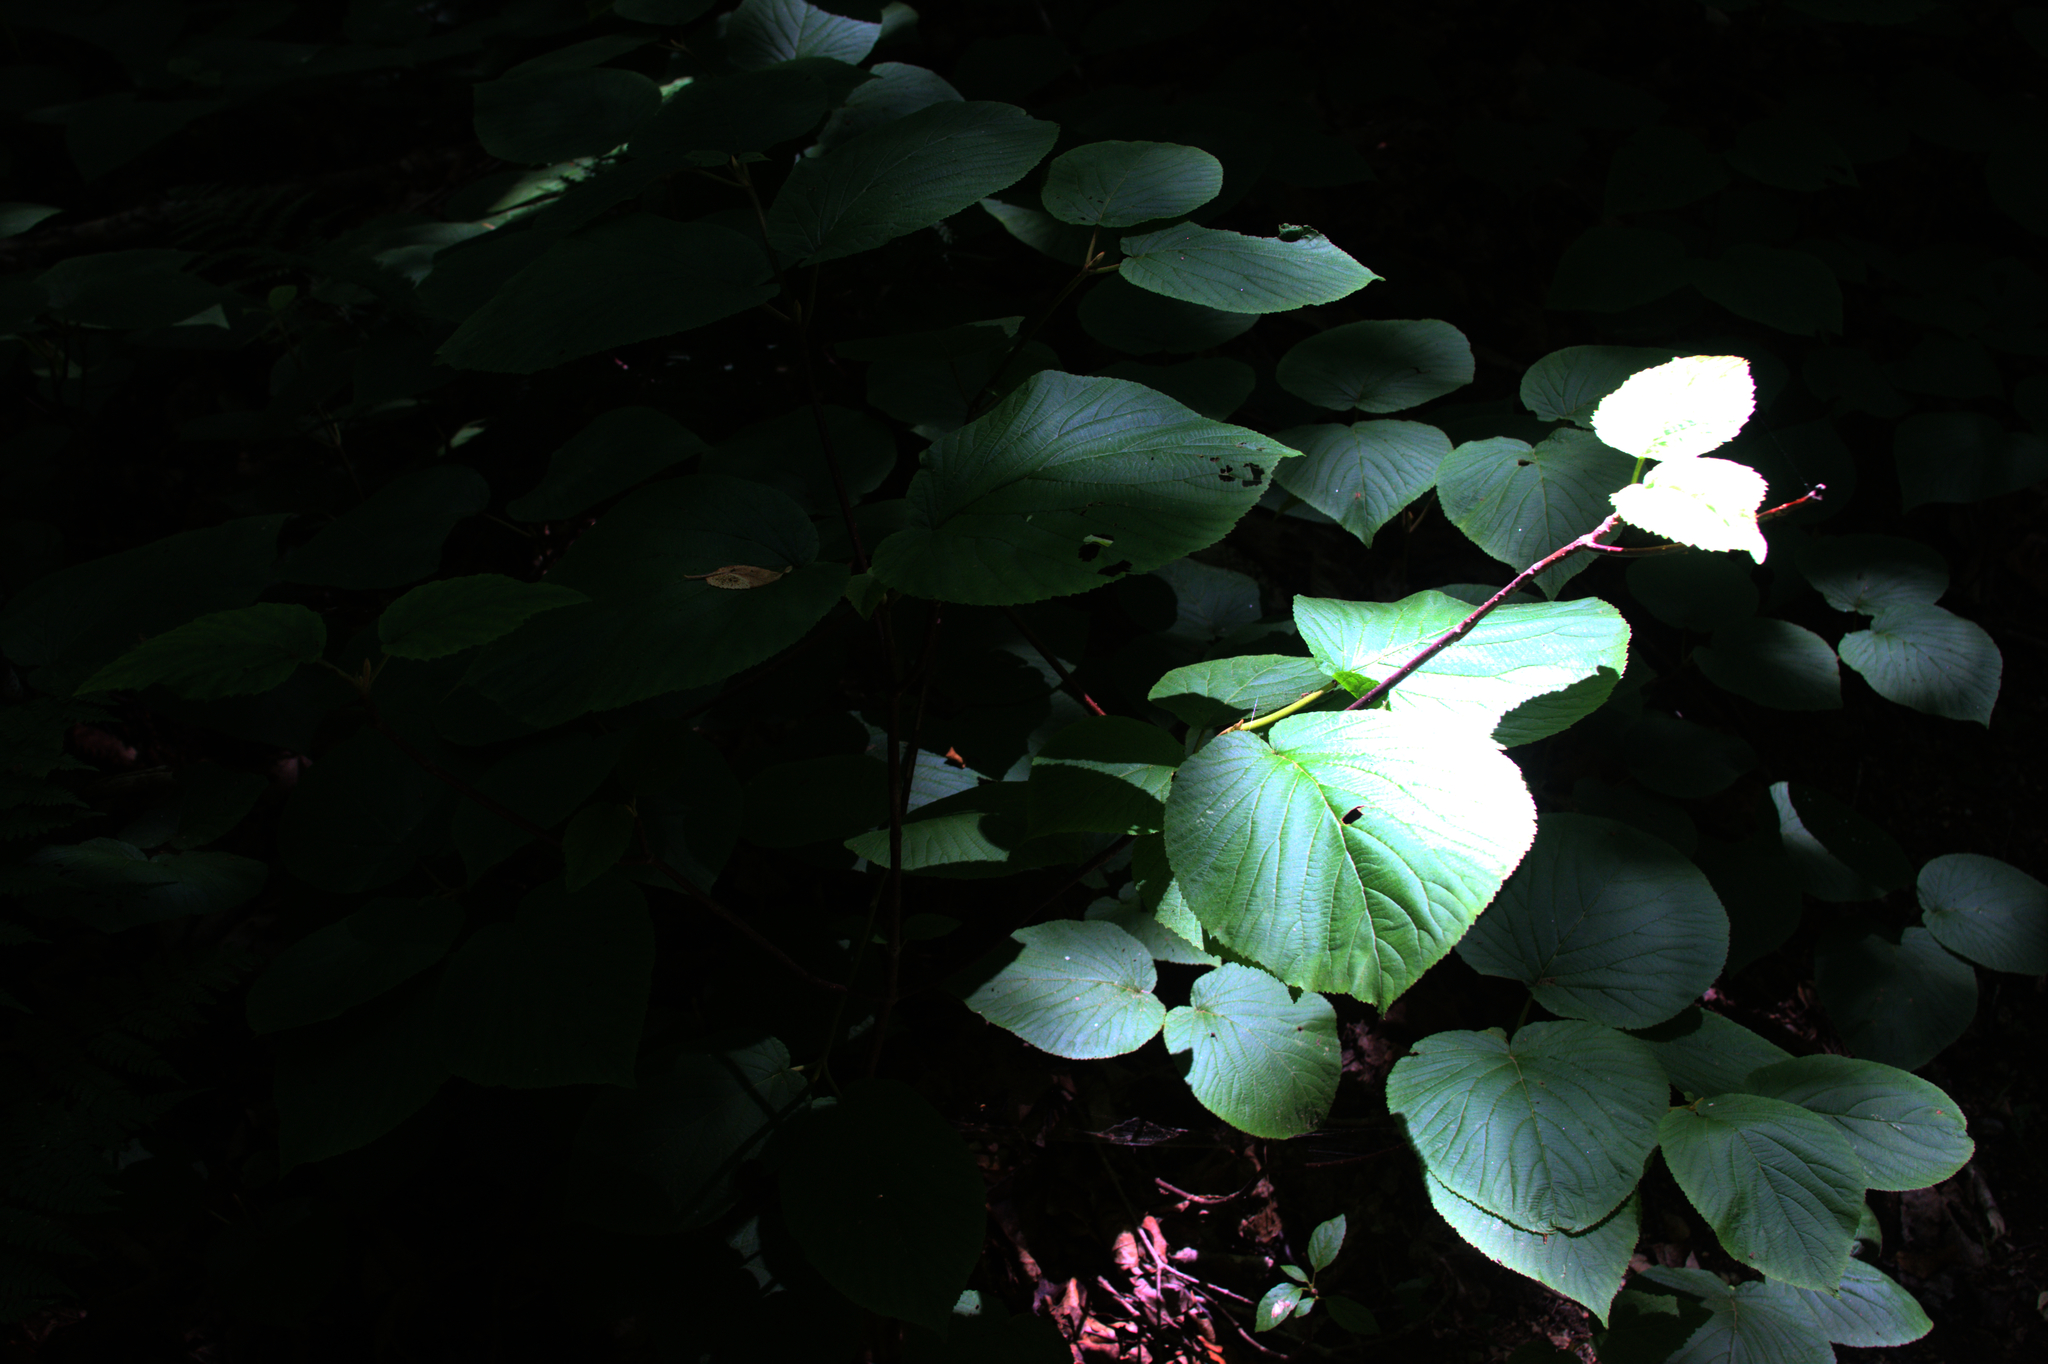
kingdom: Plantae
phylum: Tracheophyta
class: Magnoliopsida
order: Dipsacales
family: Viburnaceae
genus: Viburnum
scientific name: Viburnum lantanoides
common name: Hobblebush
